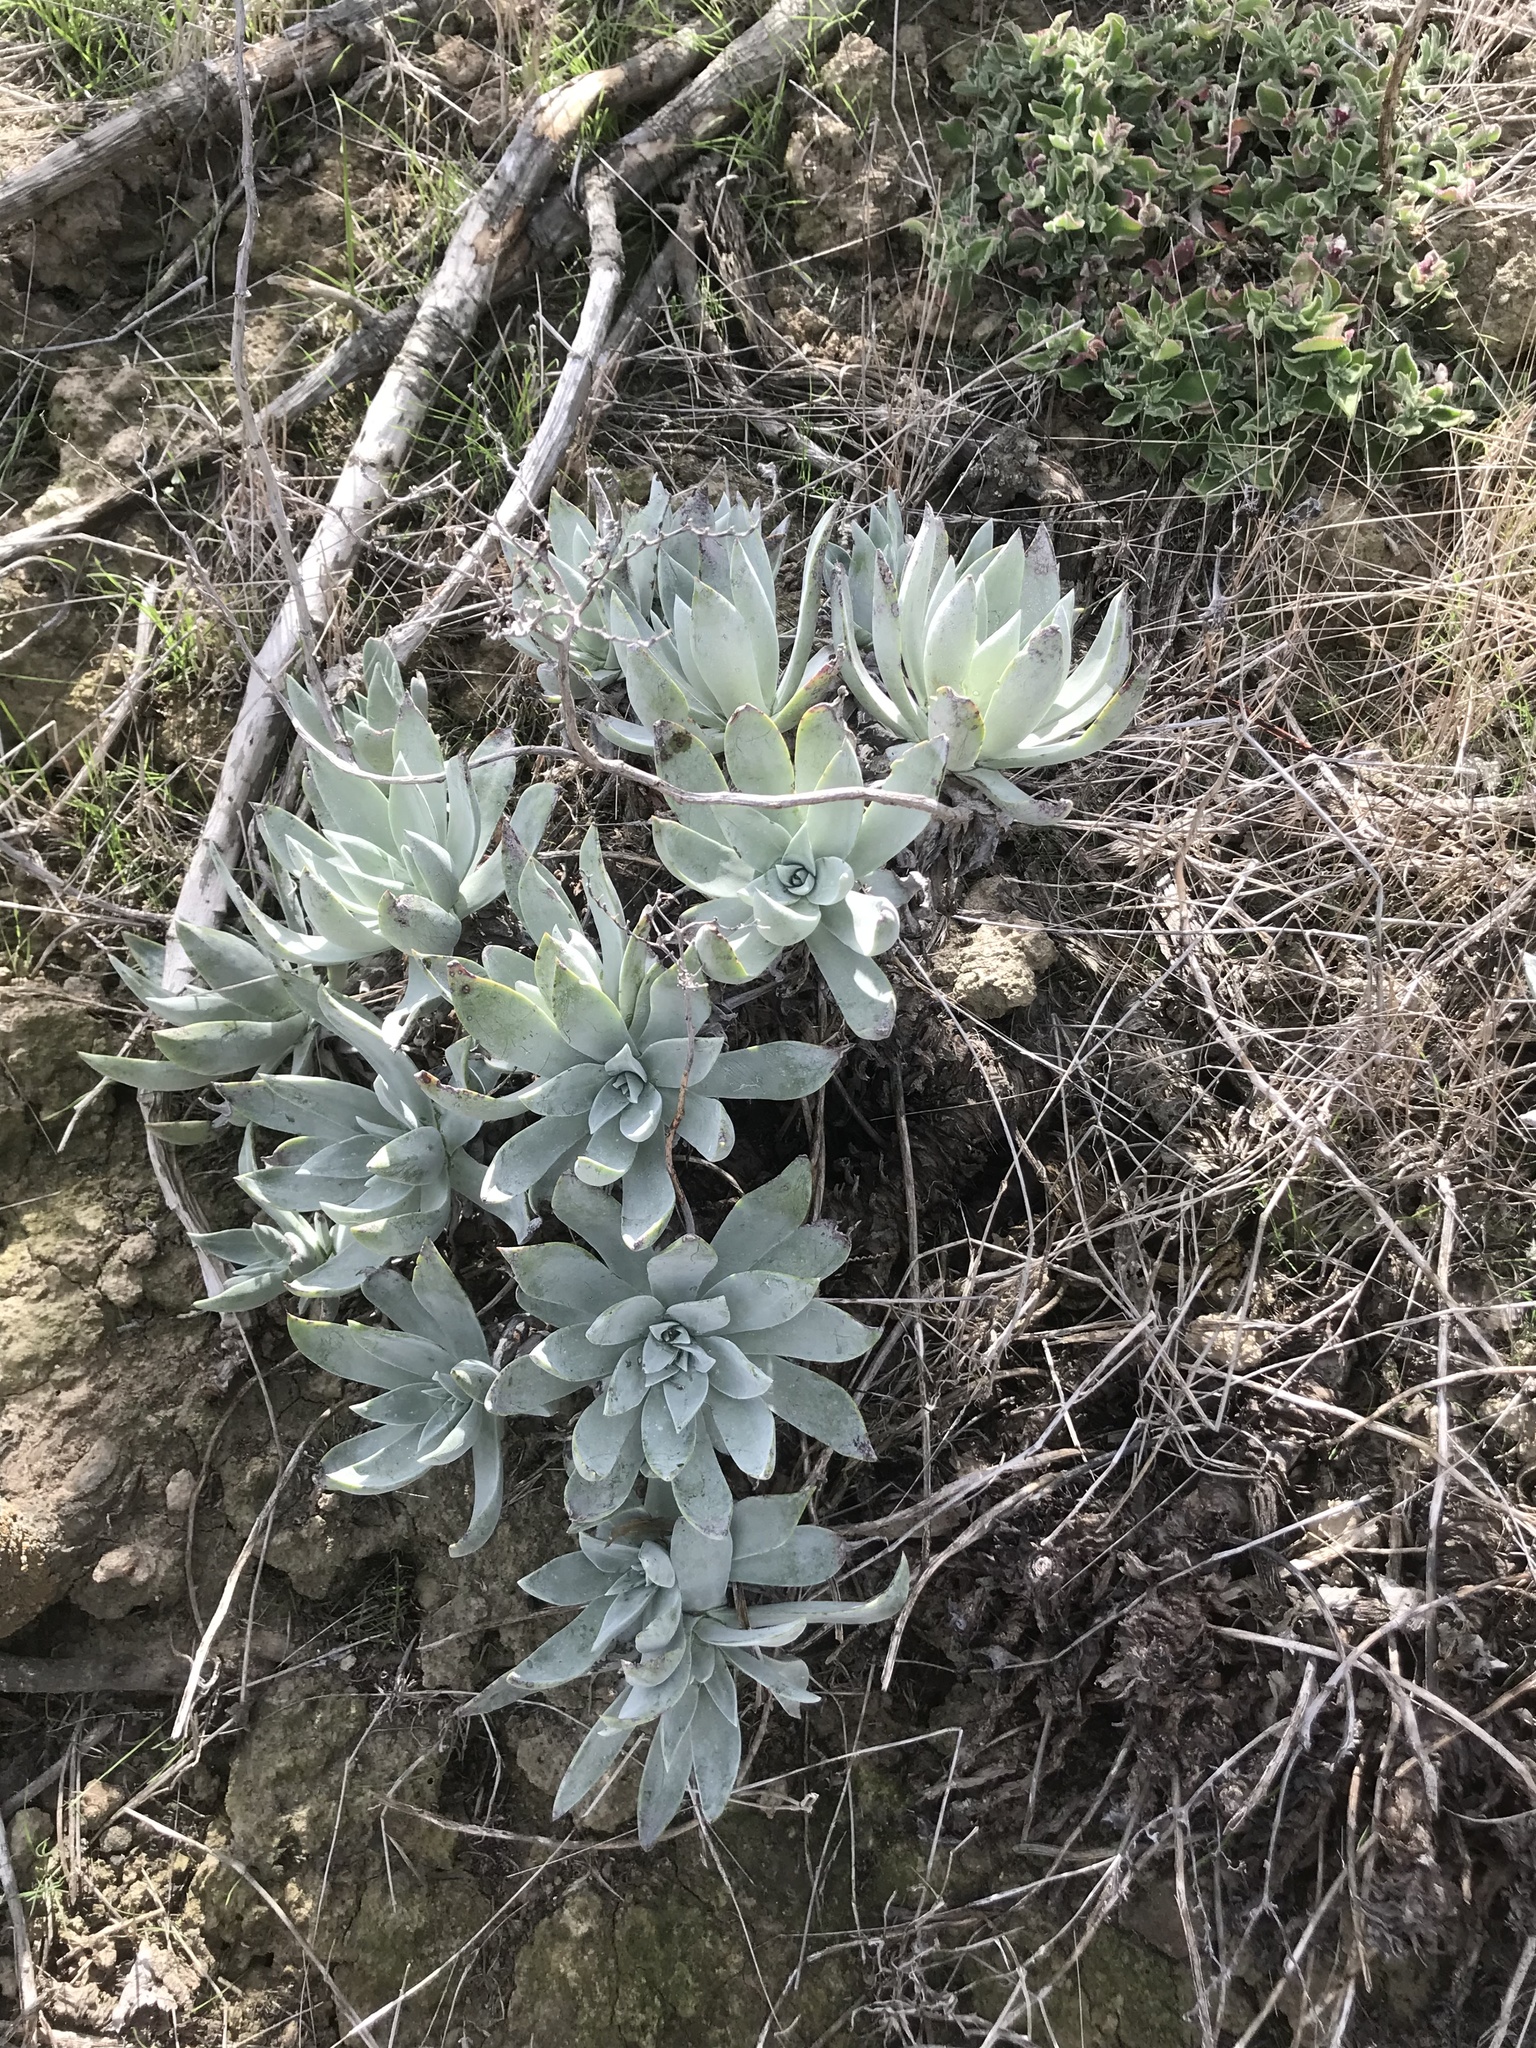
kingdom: Plantae
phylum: Tracheophyta
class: Magnoliopsida
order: Saxifragales
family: Crassulaceae
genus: Dudleya
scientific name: Dudleya traskiae
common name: Santa barbara island dudleya
